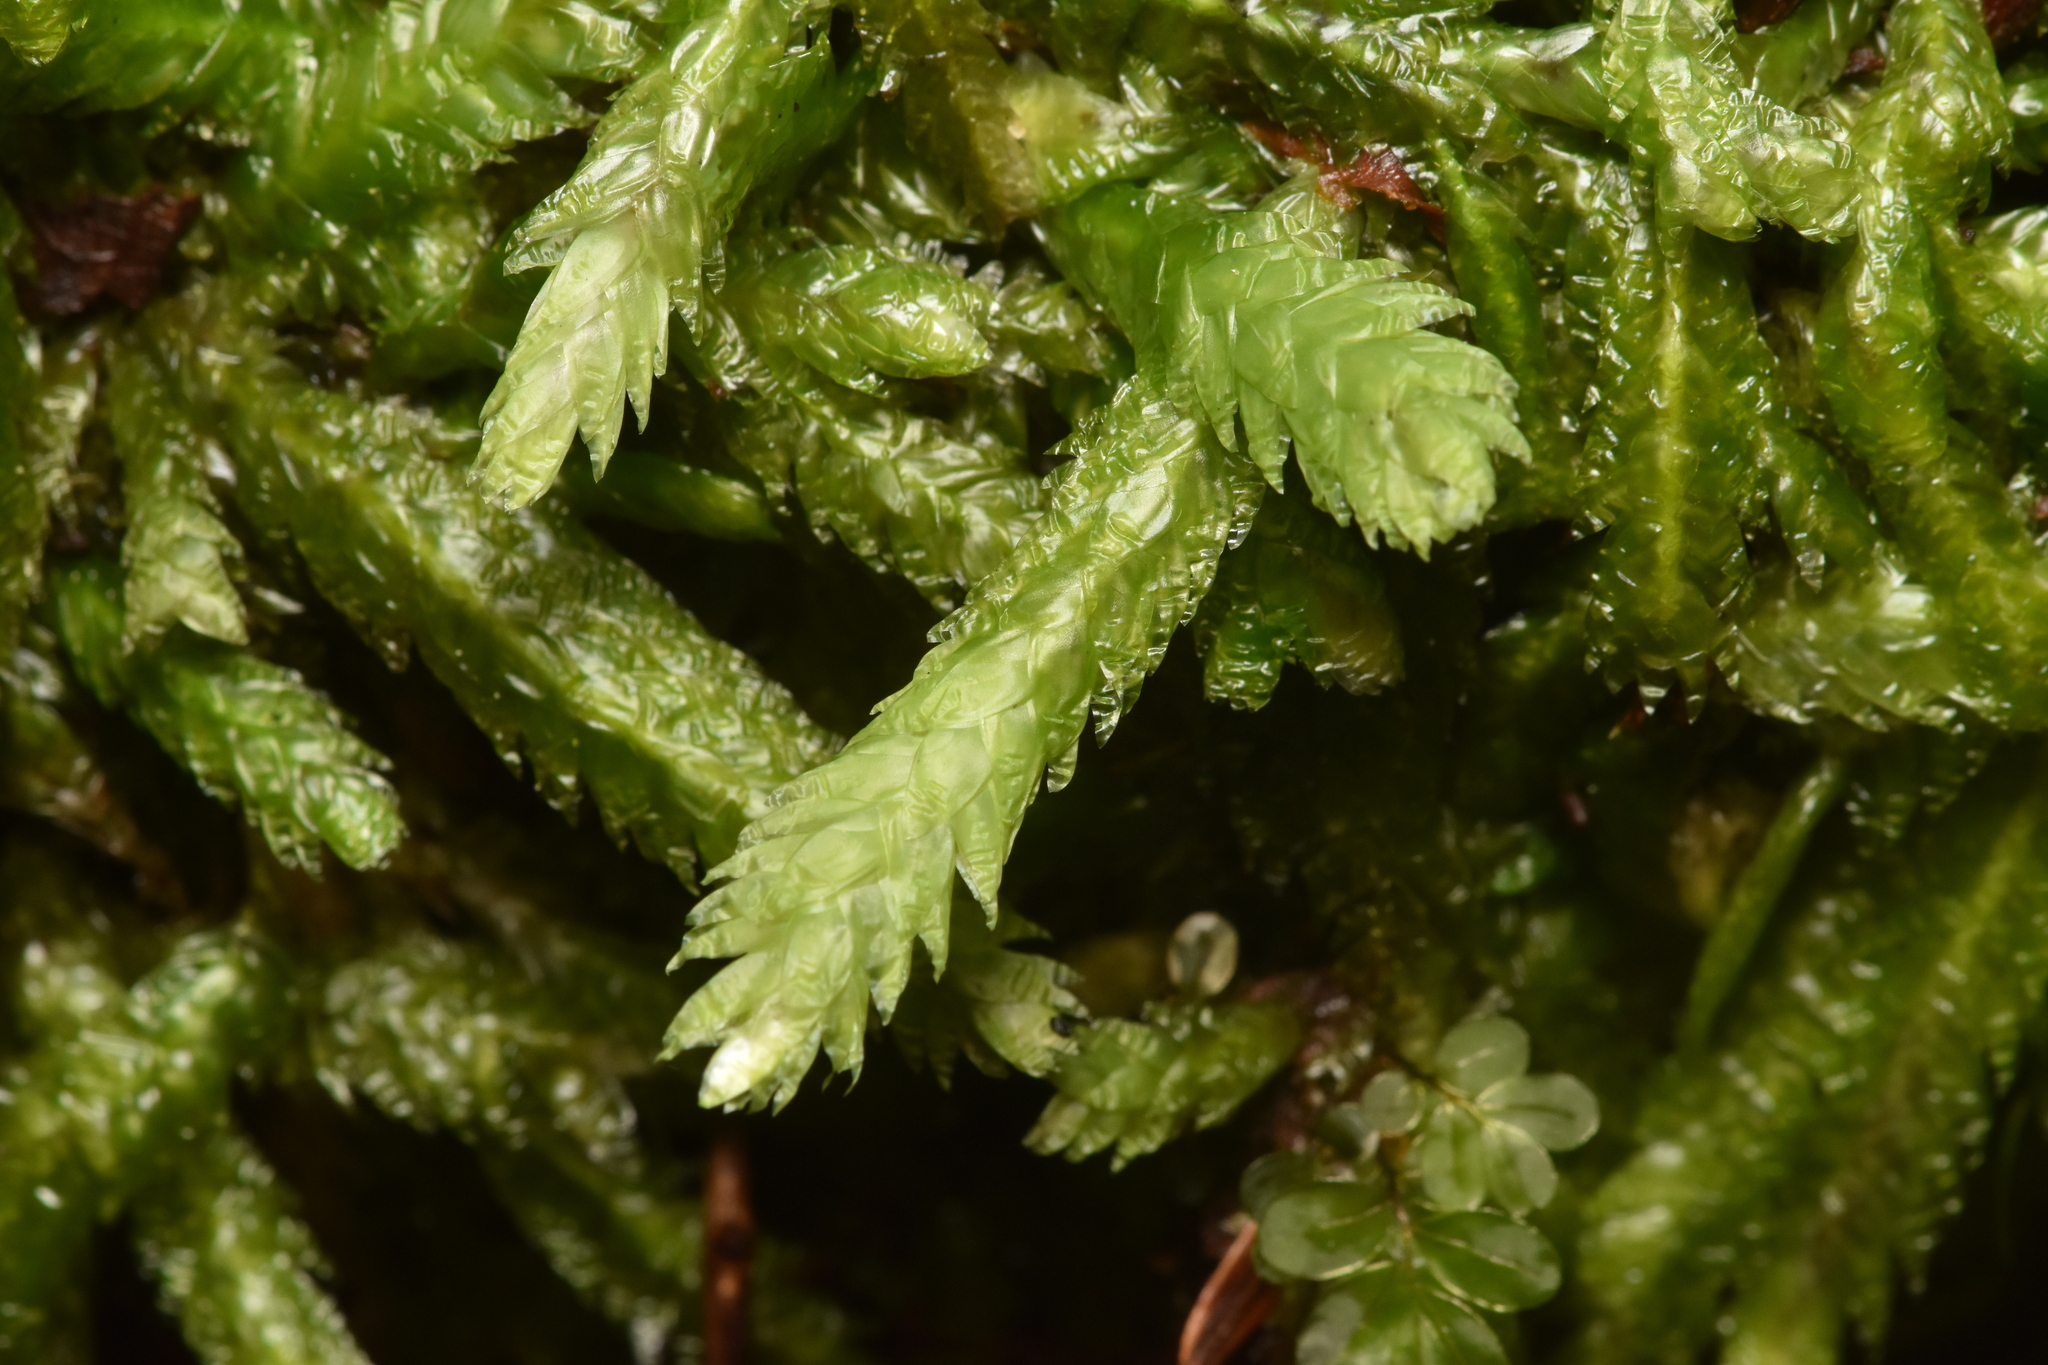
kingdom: Plantae
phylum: Bryophyta
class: Bryopsida
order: Hypnales
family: Plagiotheciaceae
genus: Plagiothecium
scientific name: Plagiothecium undulatum
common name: Waved silk-moss
